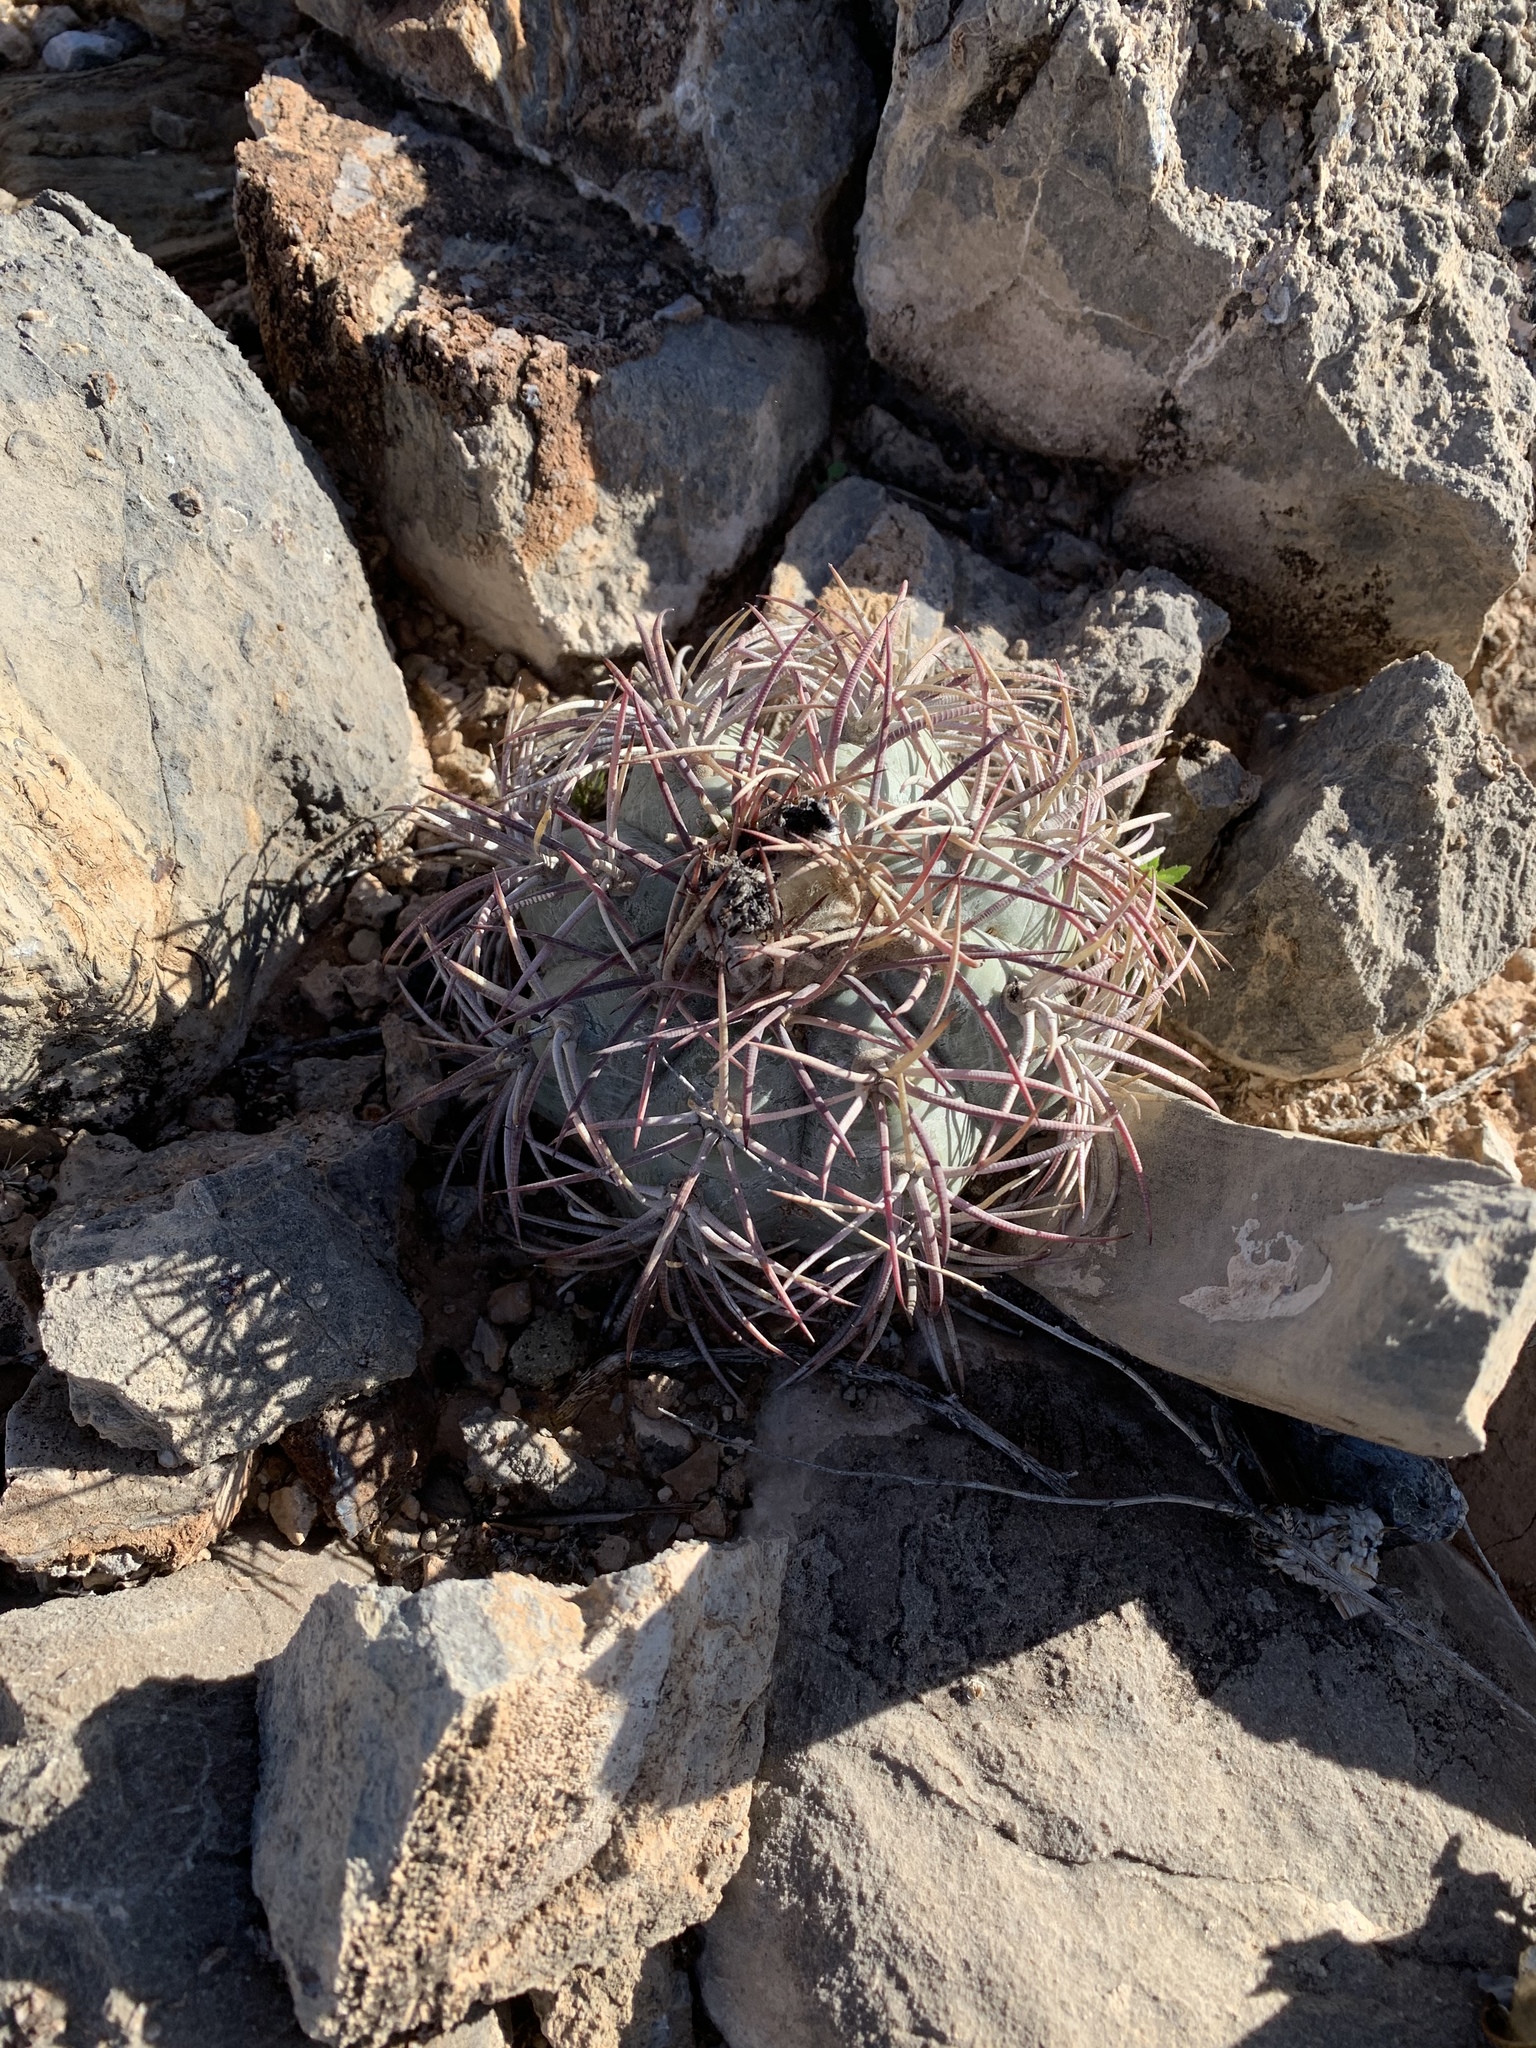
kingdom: Plantae
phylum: Tracheophyta
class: Magnoliopsida
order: Caryophyllales
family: Cactaceae
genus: Echinocactus
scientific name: Echinocactus horizonthalonius
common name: Devilshead
